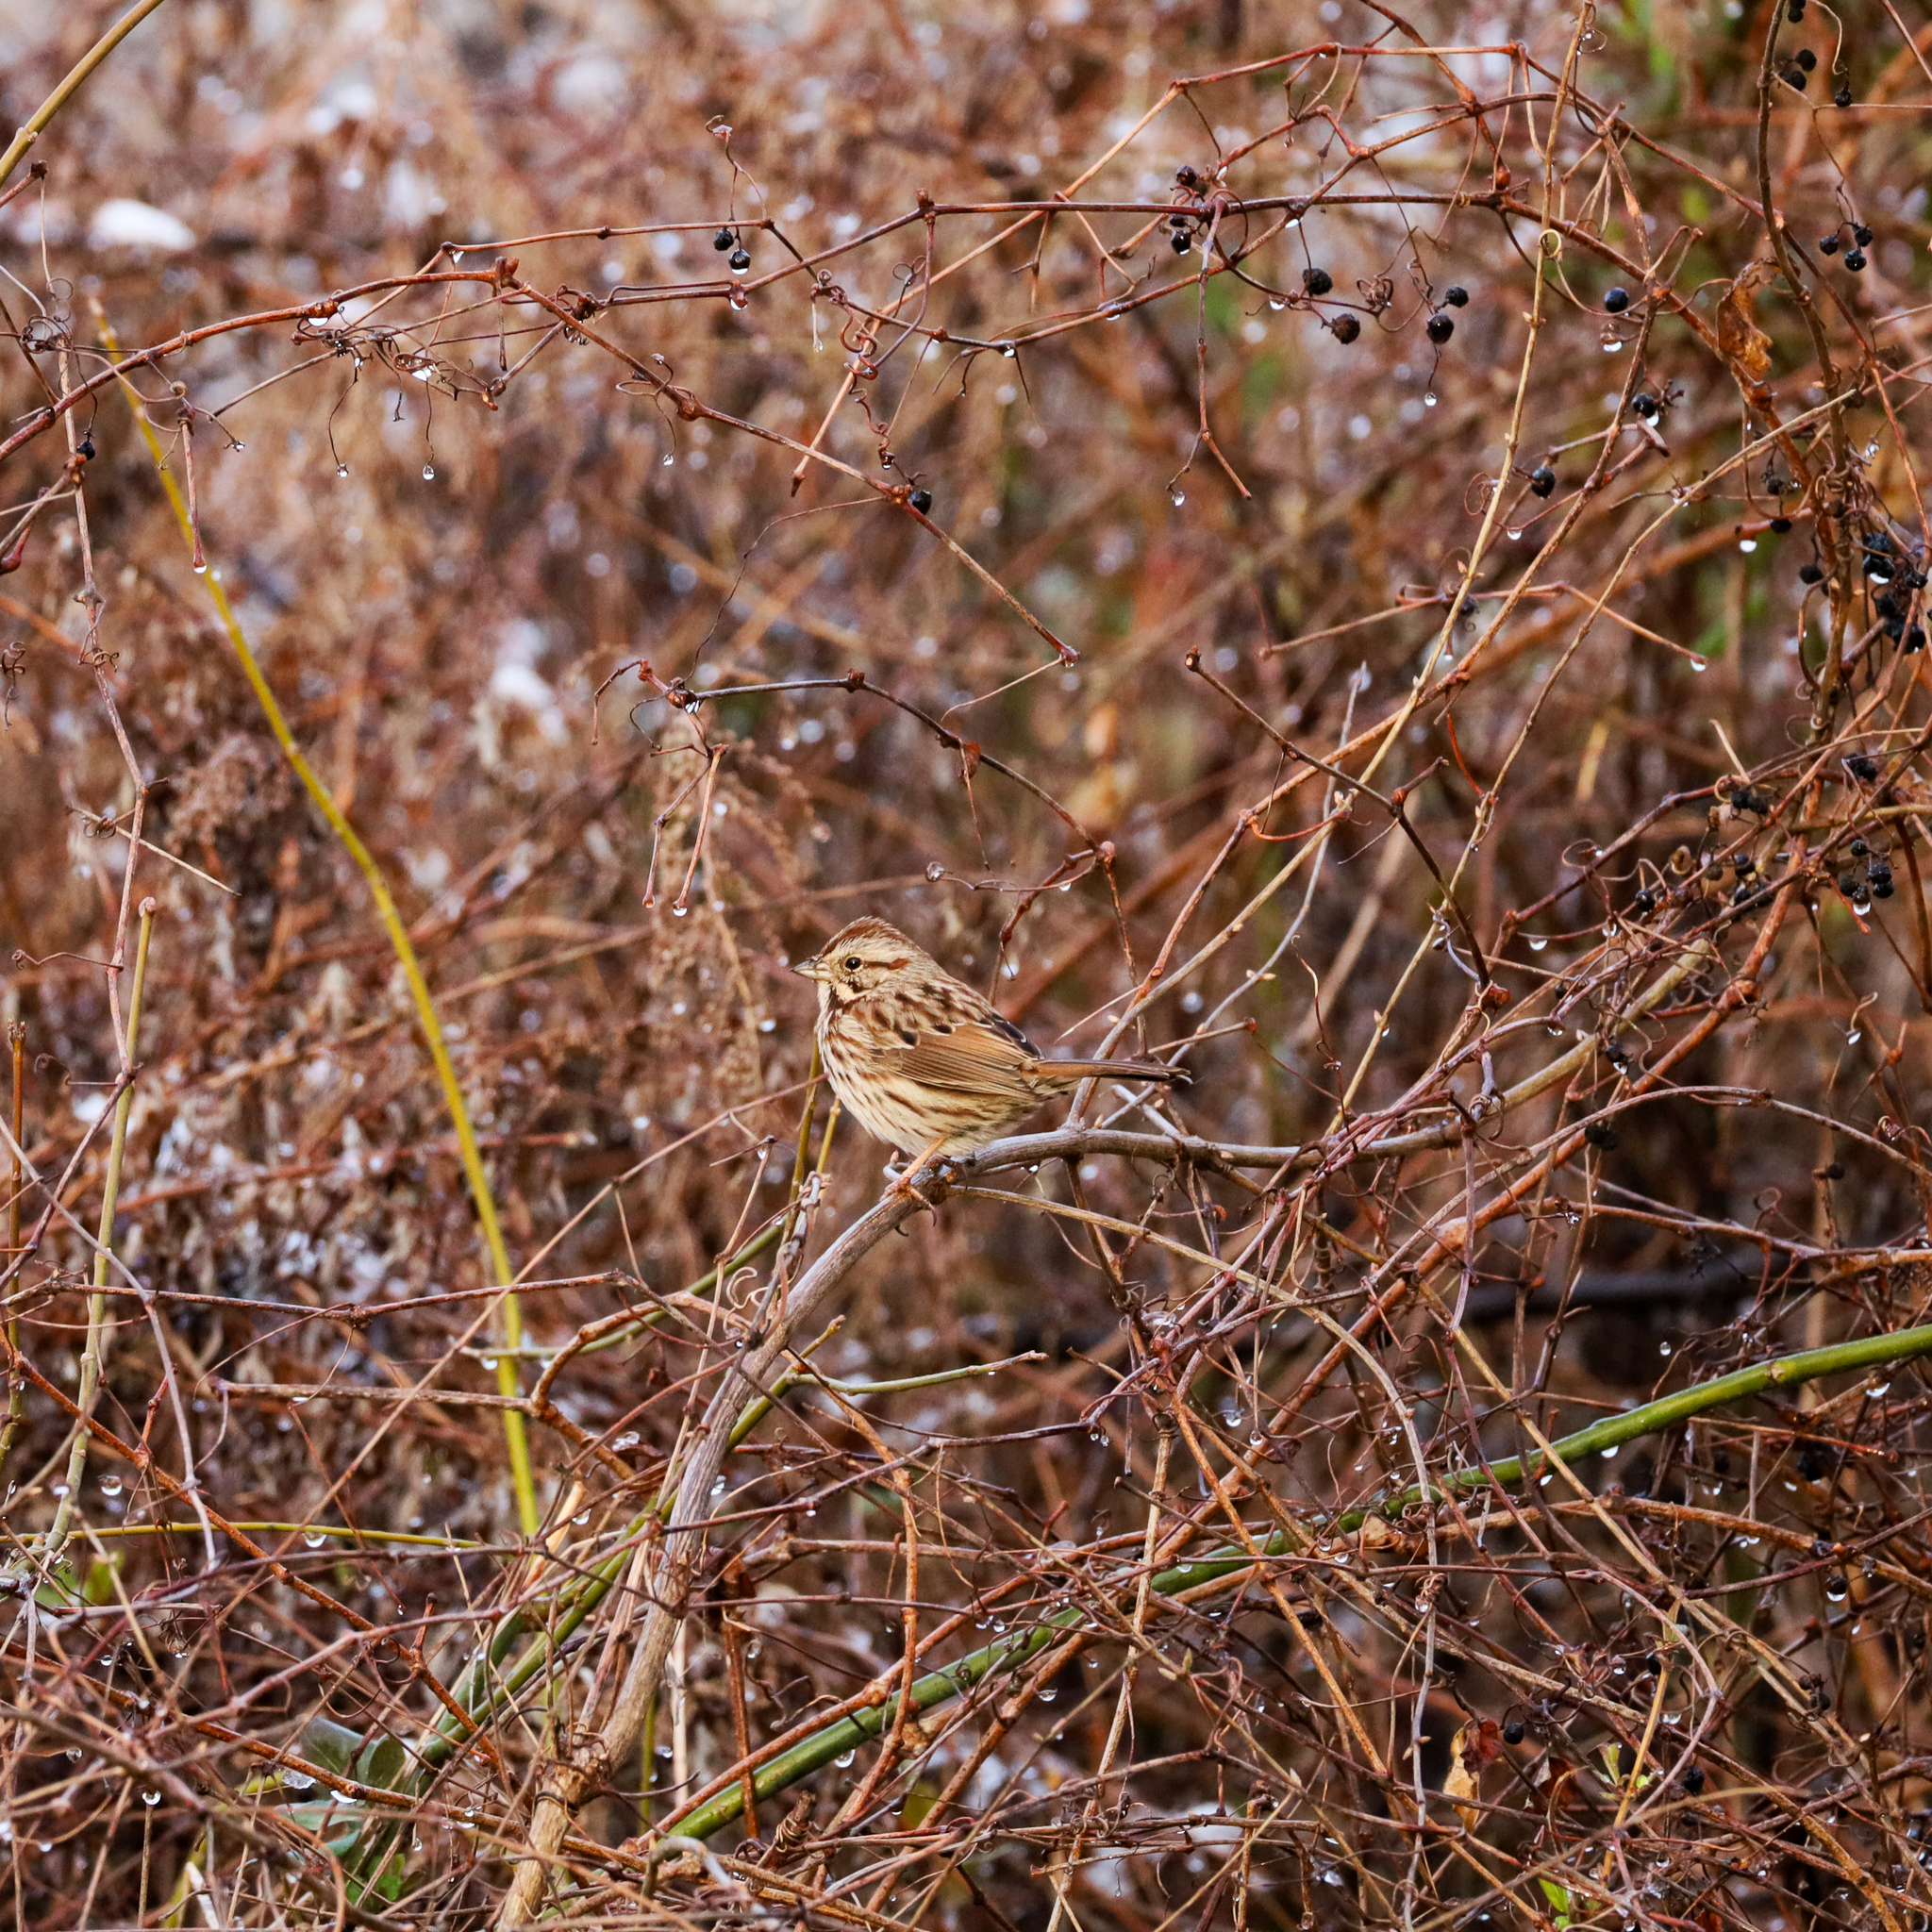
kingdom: Animalia
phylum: Chordata
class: Aves
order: Passeriformes
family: Passerellidae
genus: Melospiza
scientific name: Melospiza melodia
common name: Song sparrow
